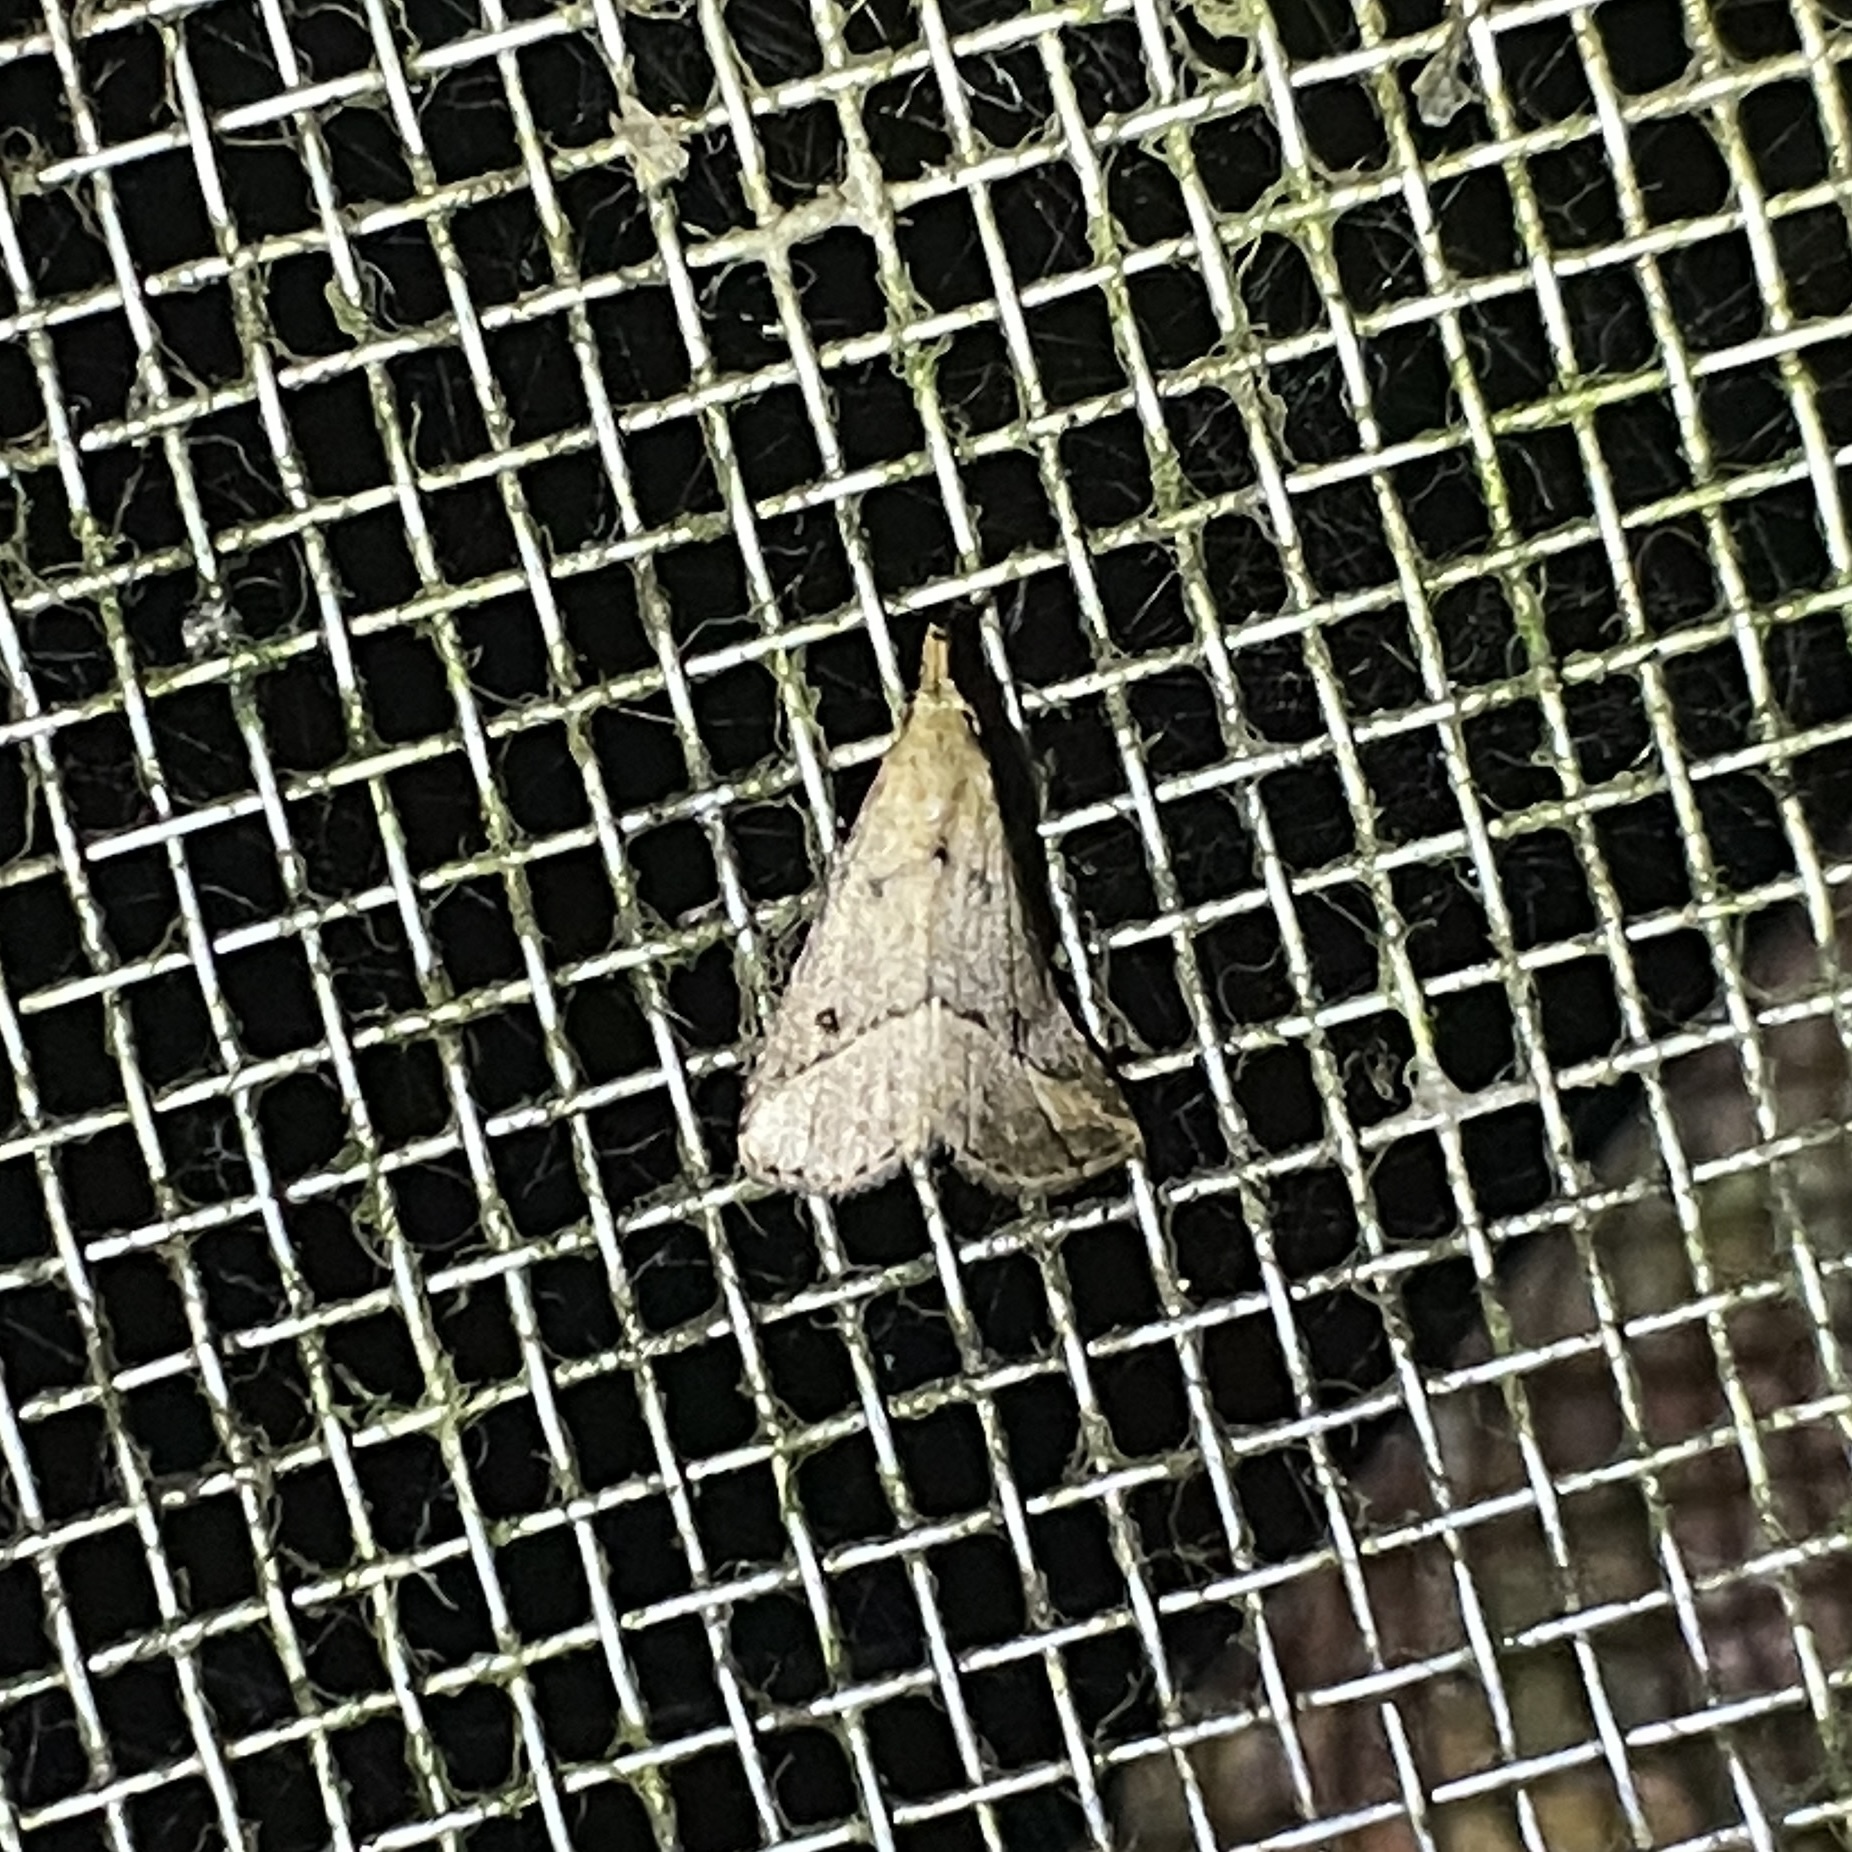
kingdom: Animalia
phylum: Arthropoda
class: Insecta
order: Lepidoptera
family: Erebidae
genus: Schrankia
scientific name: Schrankia
